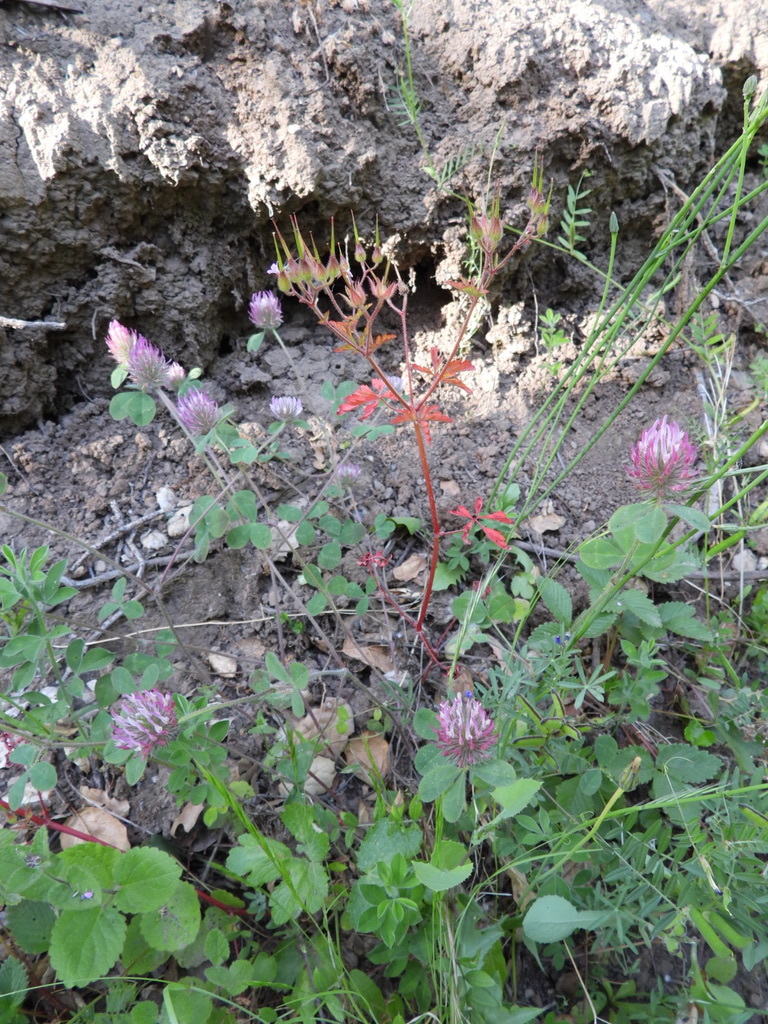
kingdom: Plantae
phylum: Tracheophyta
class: Magnoliopsida
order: Fabales
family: Fabaceae
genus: Trifolium
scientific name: Trifolium hirtum
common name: Rose clover
